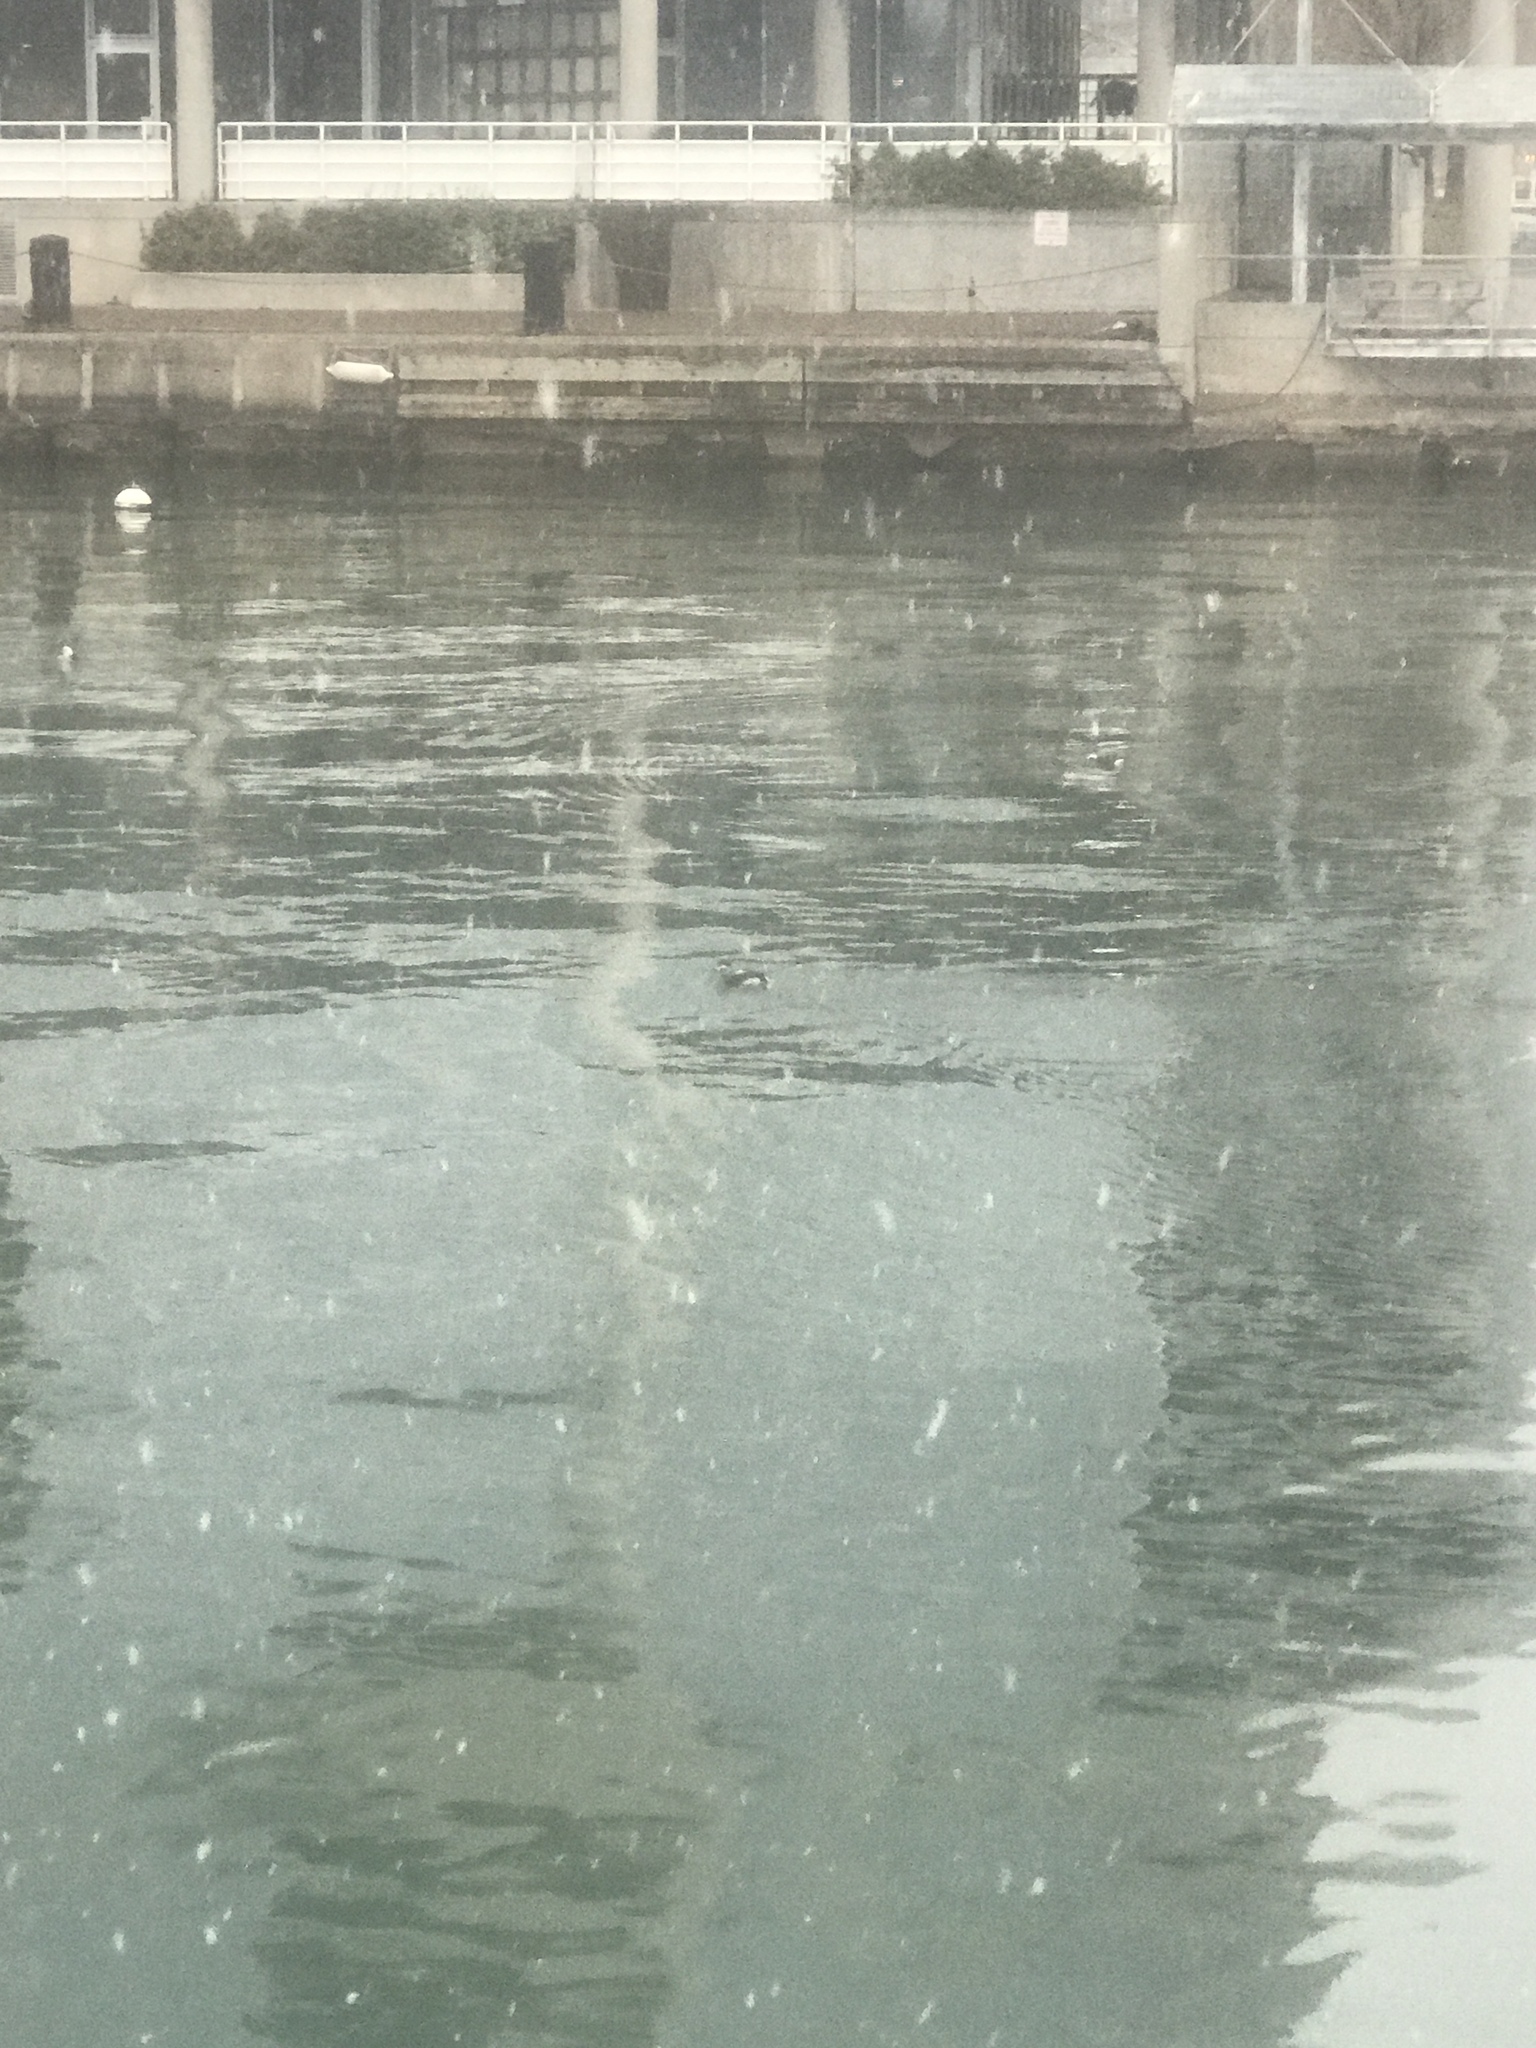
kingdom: Animalia
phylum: Chordata
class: Aves
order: Anseriformes
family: Anatidae
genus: Clangula
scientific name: Clangula hyemalis
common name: Long-tailed duck
